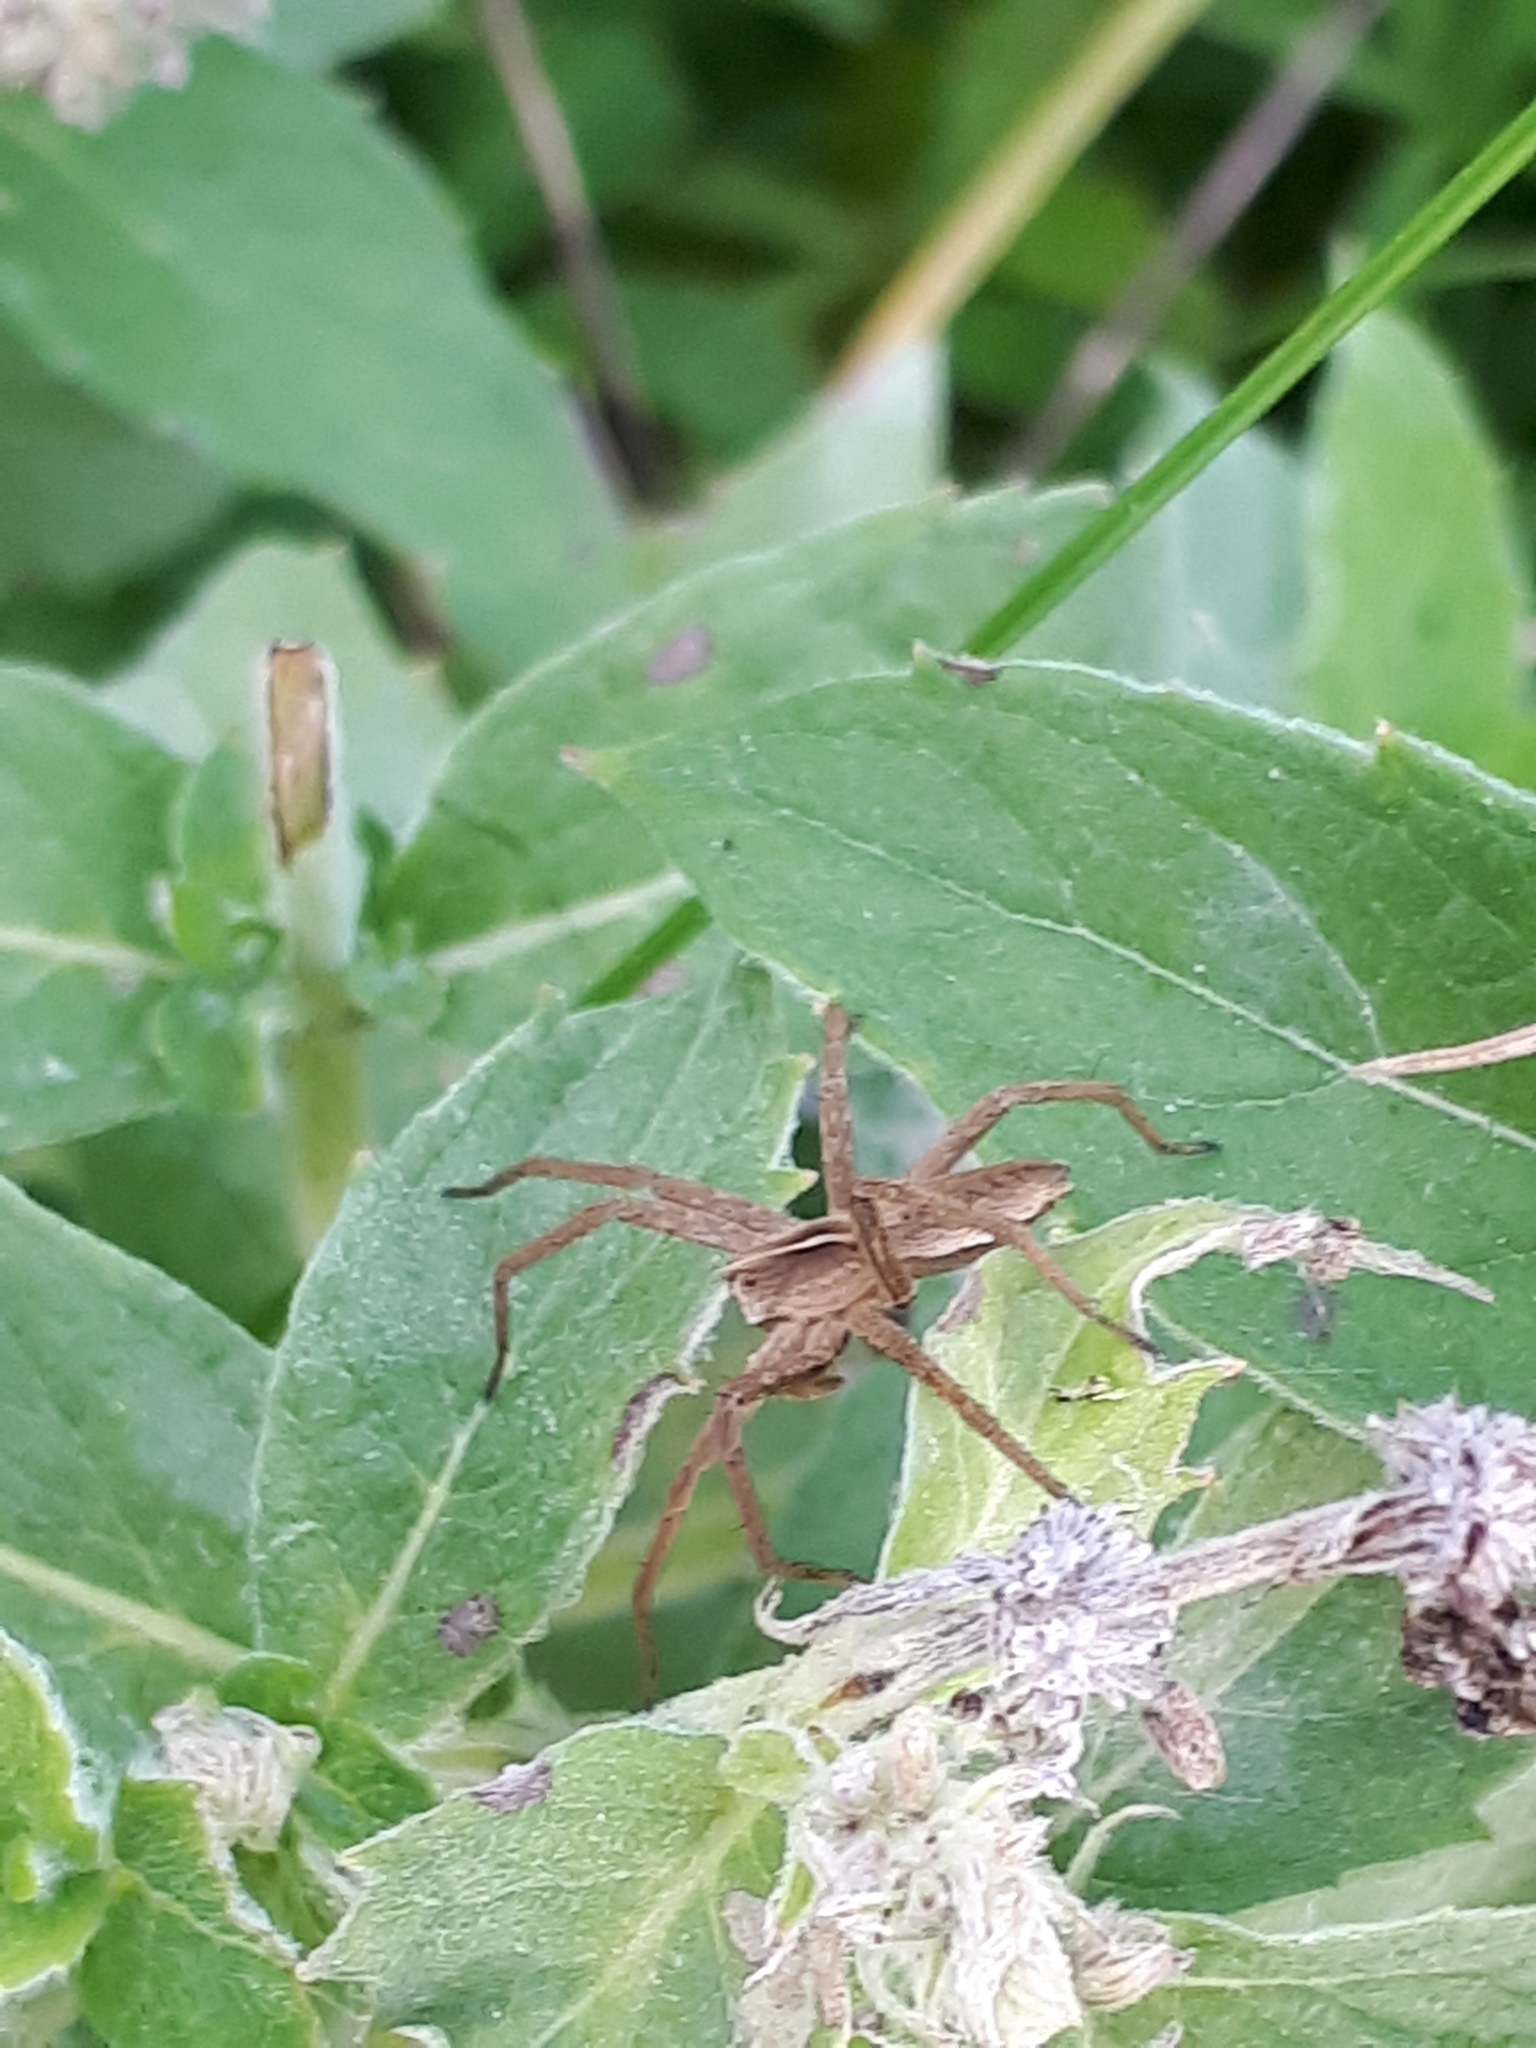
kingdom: Animalia
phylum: Arthropoda
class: Arachnida
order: Araneae
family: Pisauridae
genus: Pisaura
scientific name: Pisaura mirabilis
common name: Tent spider
